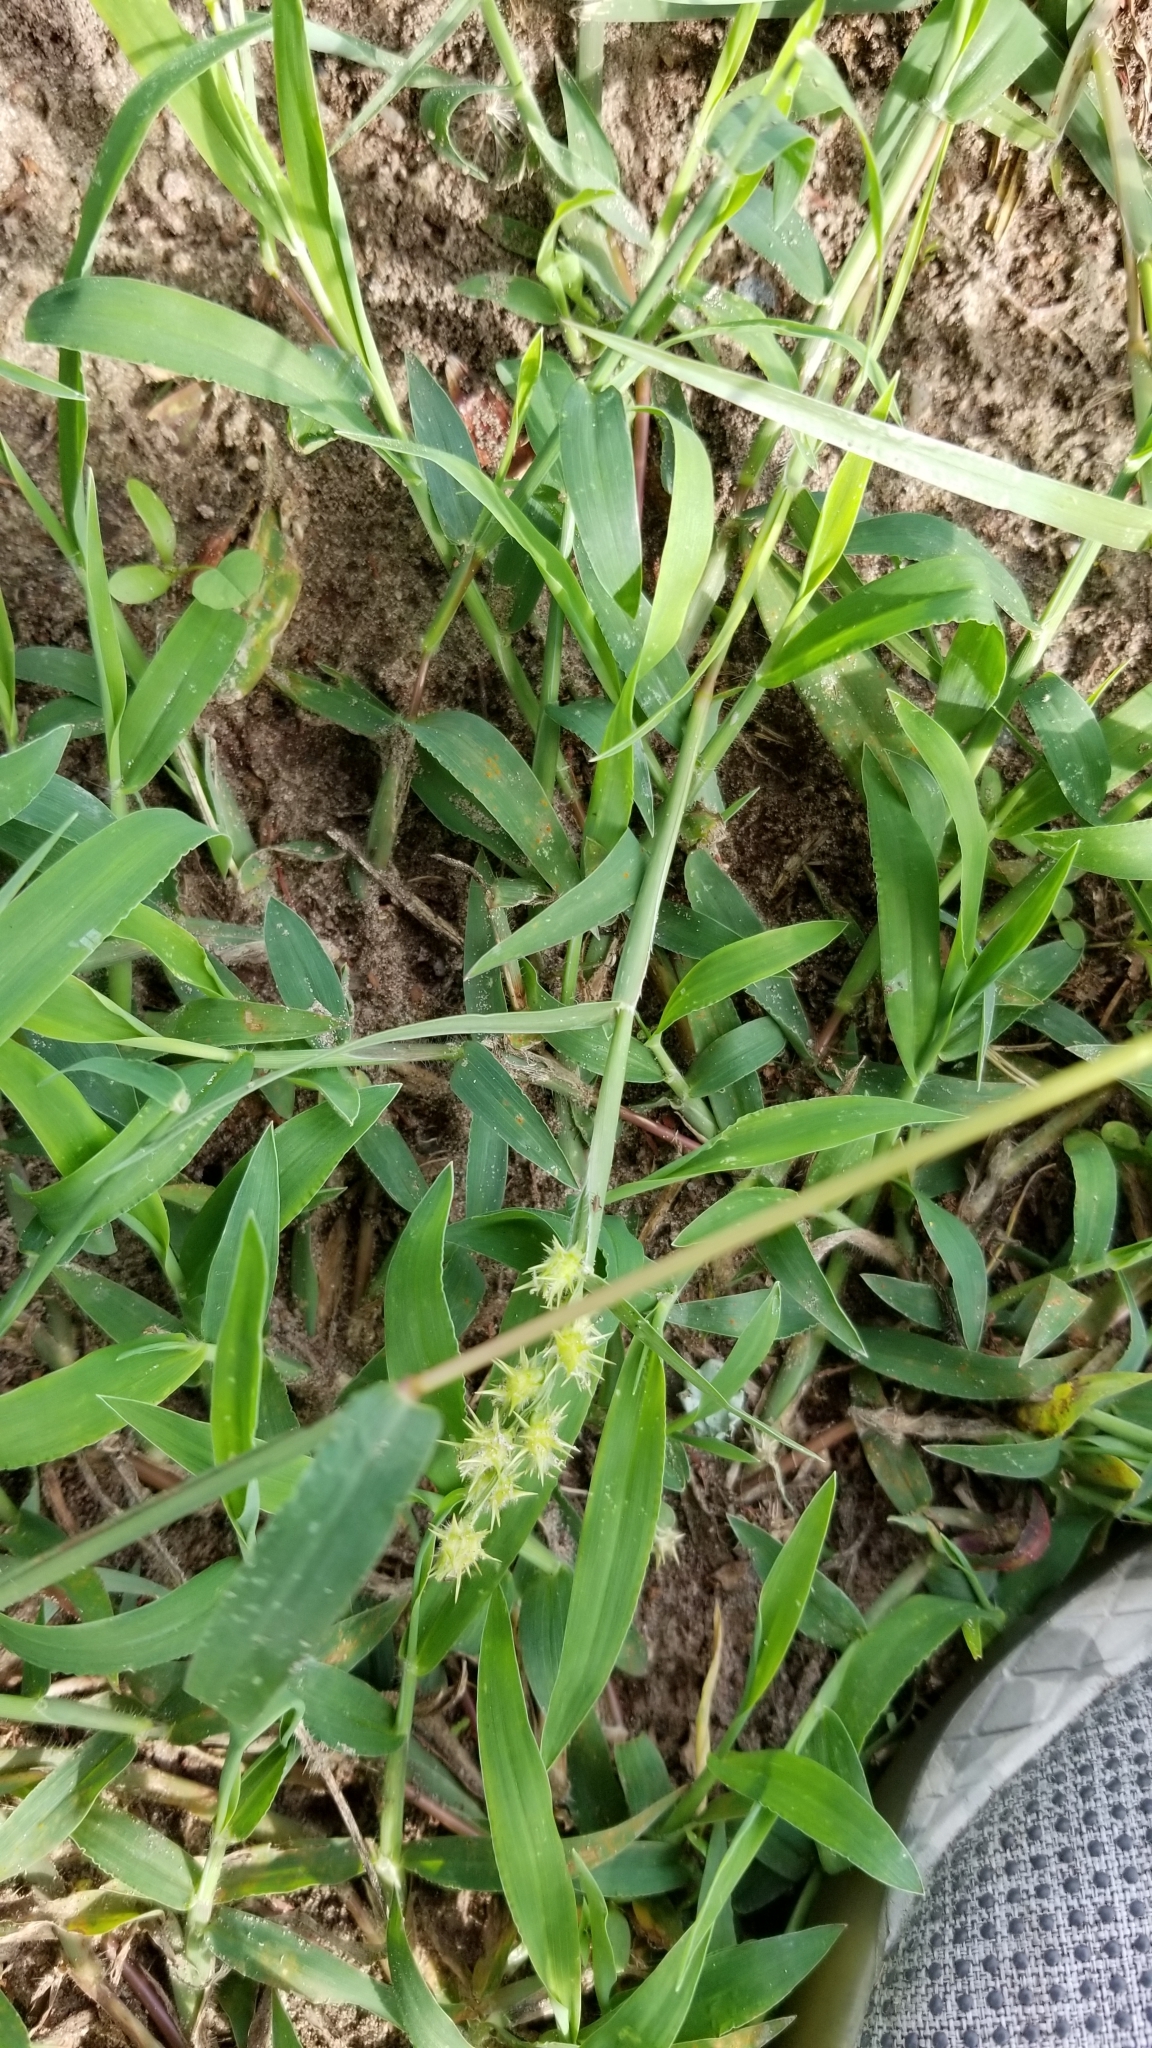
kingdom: Plantae
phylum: Tracheophyta
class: Liliopsida
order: Poales
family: Poaceae
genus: Cenchrus
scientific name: Cenchrus spinifex
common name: Coast sandbur
